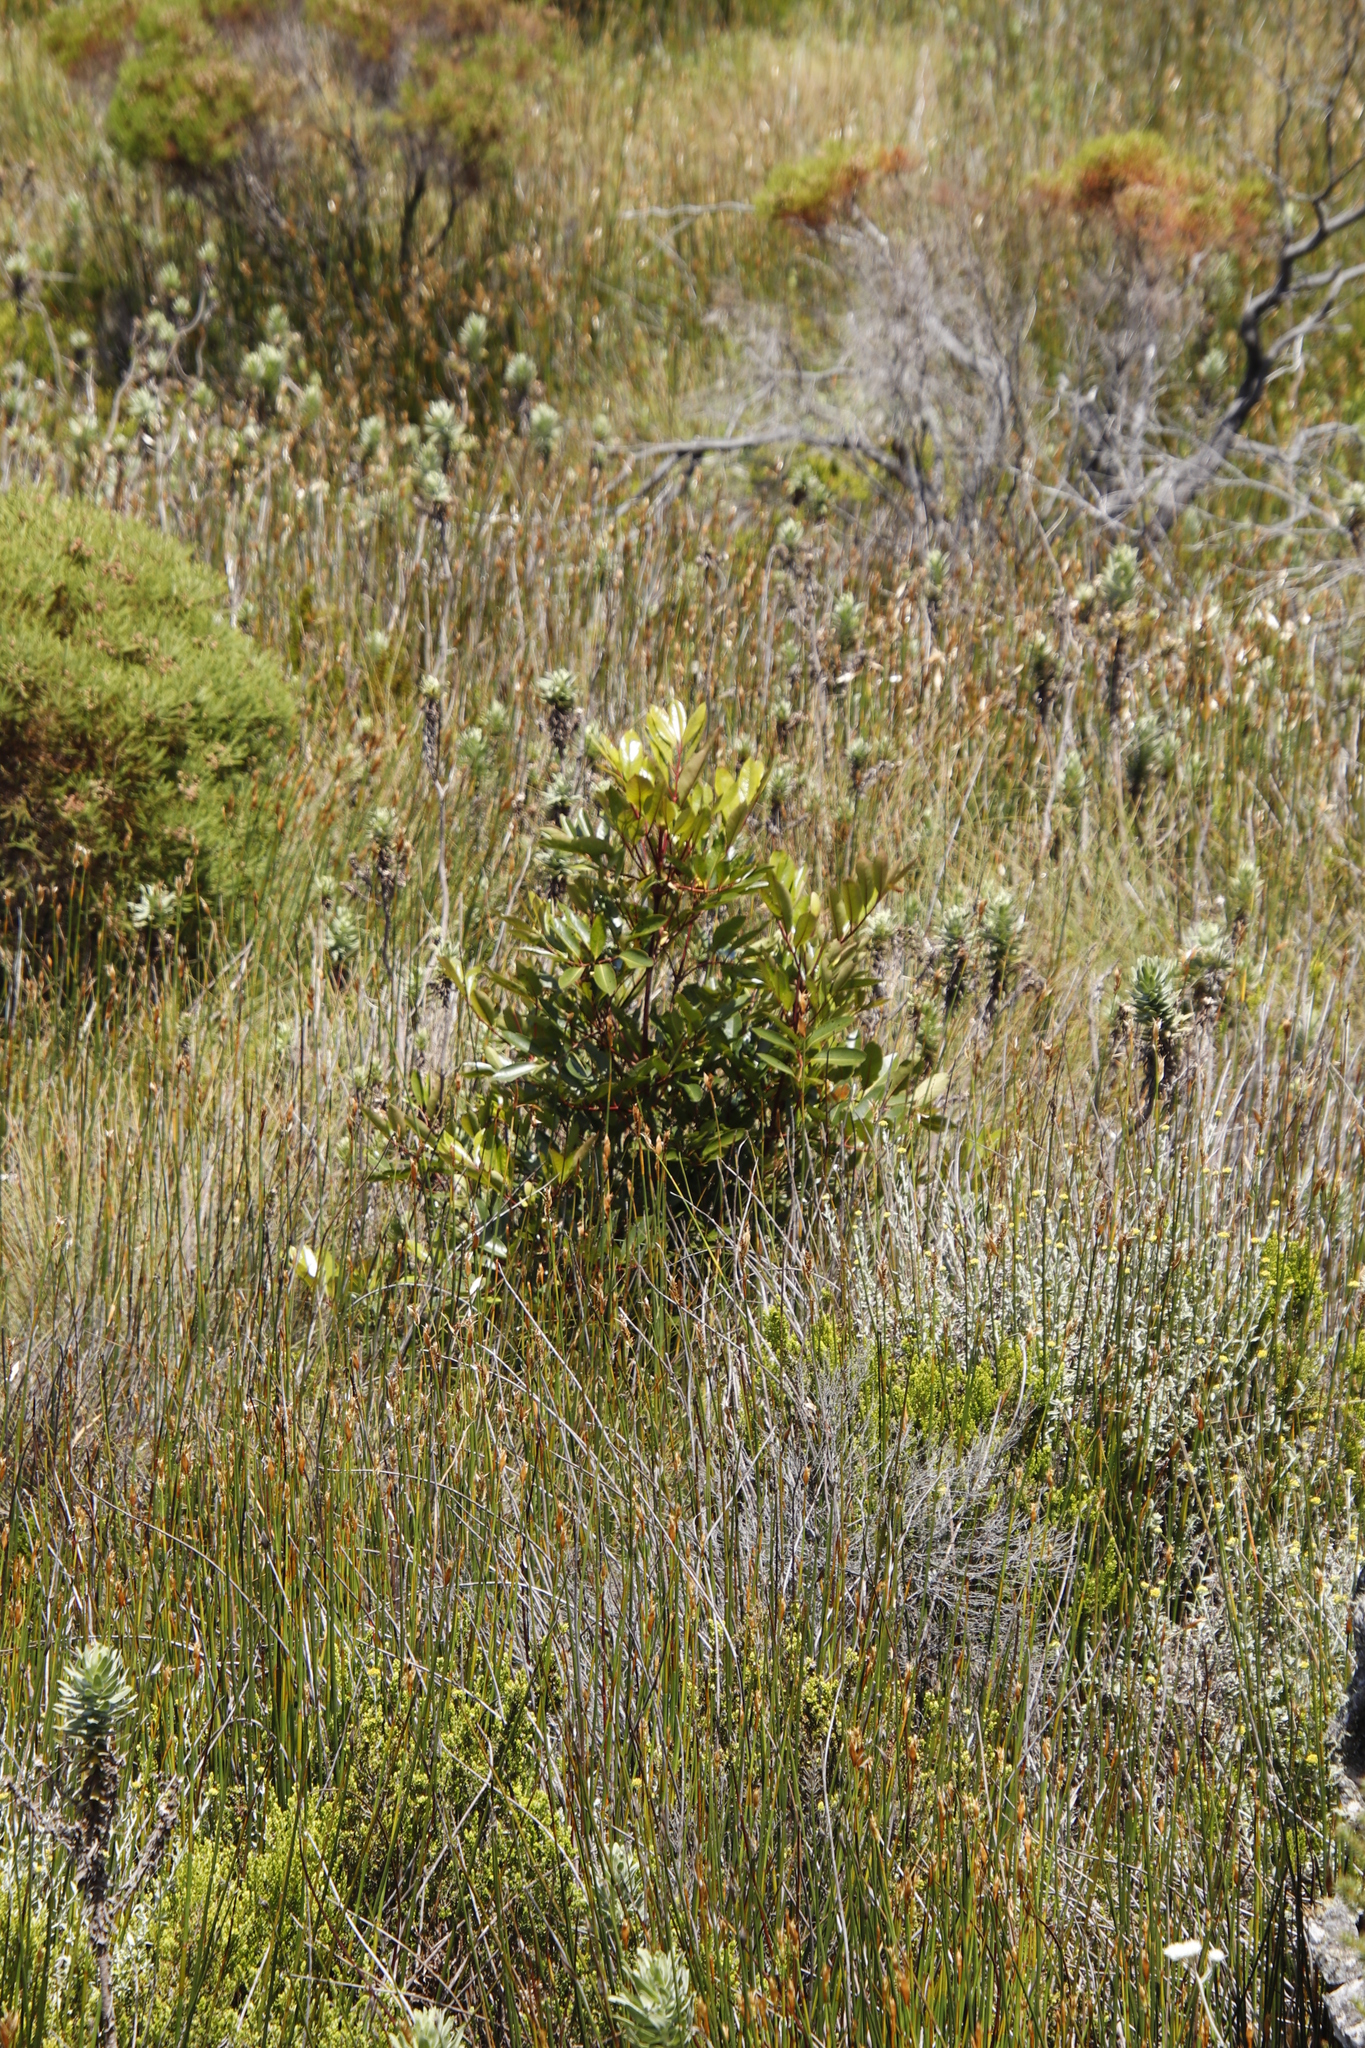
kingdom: Plantae
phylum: Tracheophyta
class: Magnoliopsida
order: Oxalidales
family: Cunoniaceae
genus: Cunonia
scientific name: Cunonia capensis
